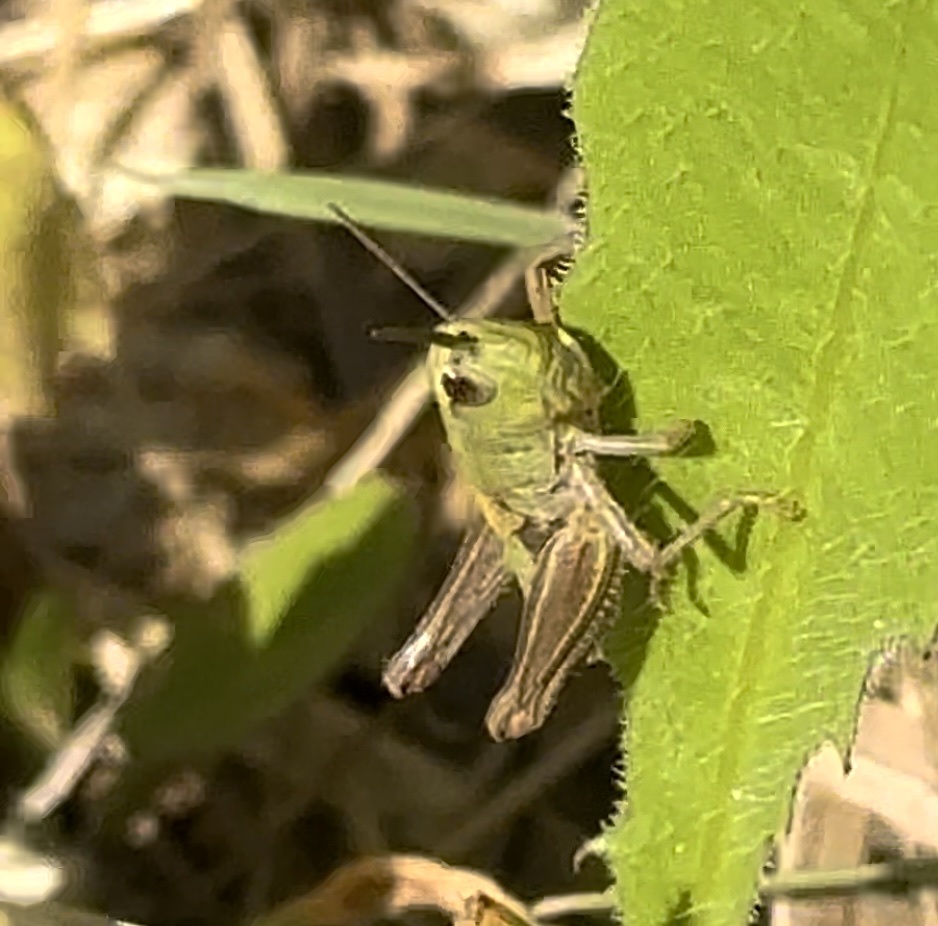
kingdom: Animalia
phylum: Arthropoda
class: Insecta
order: Orthoptera
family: Acrididae
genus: Pseudochorthippus
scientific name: Pseudochorthippus parallelus
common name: Meadow grasshopper
